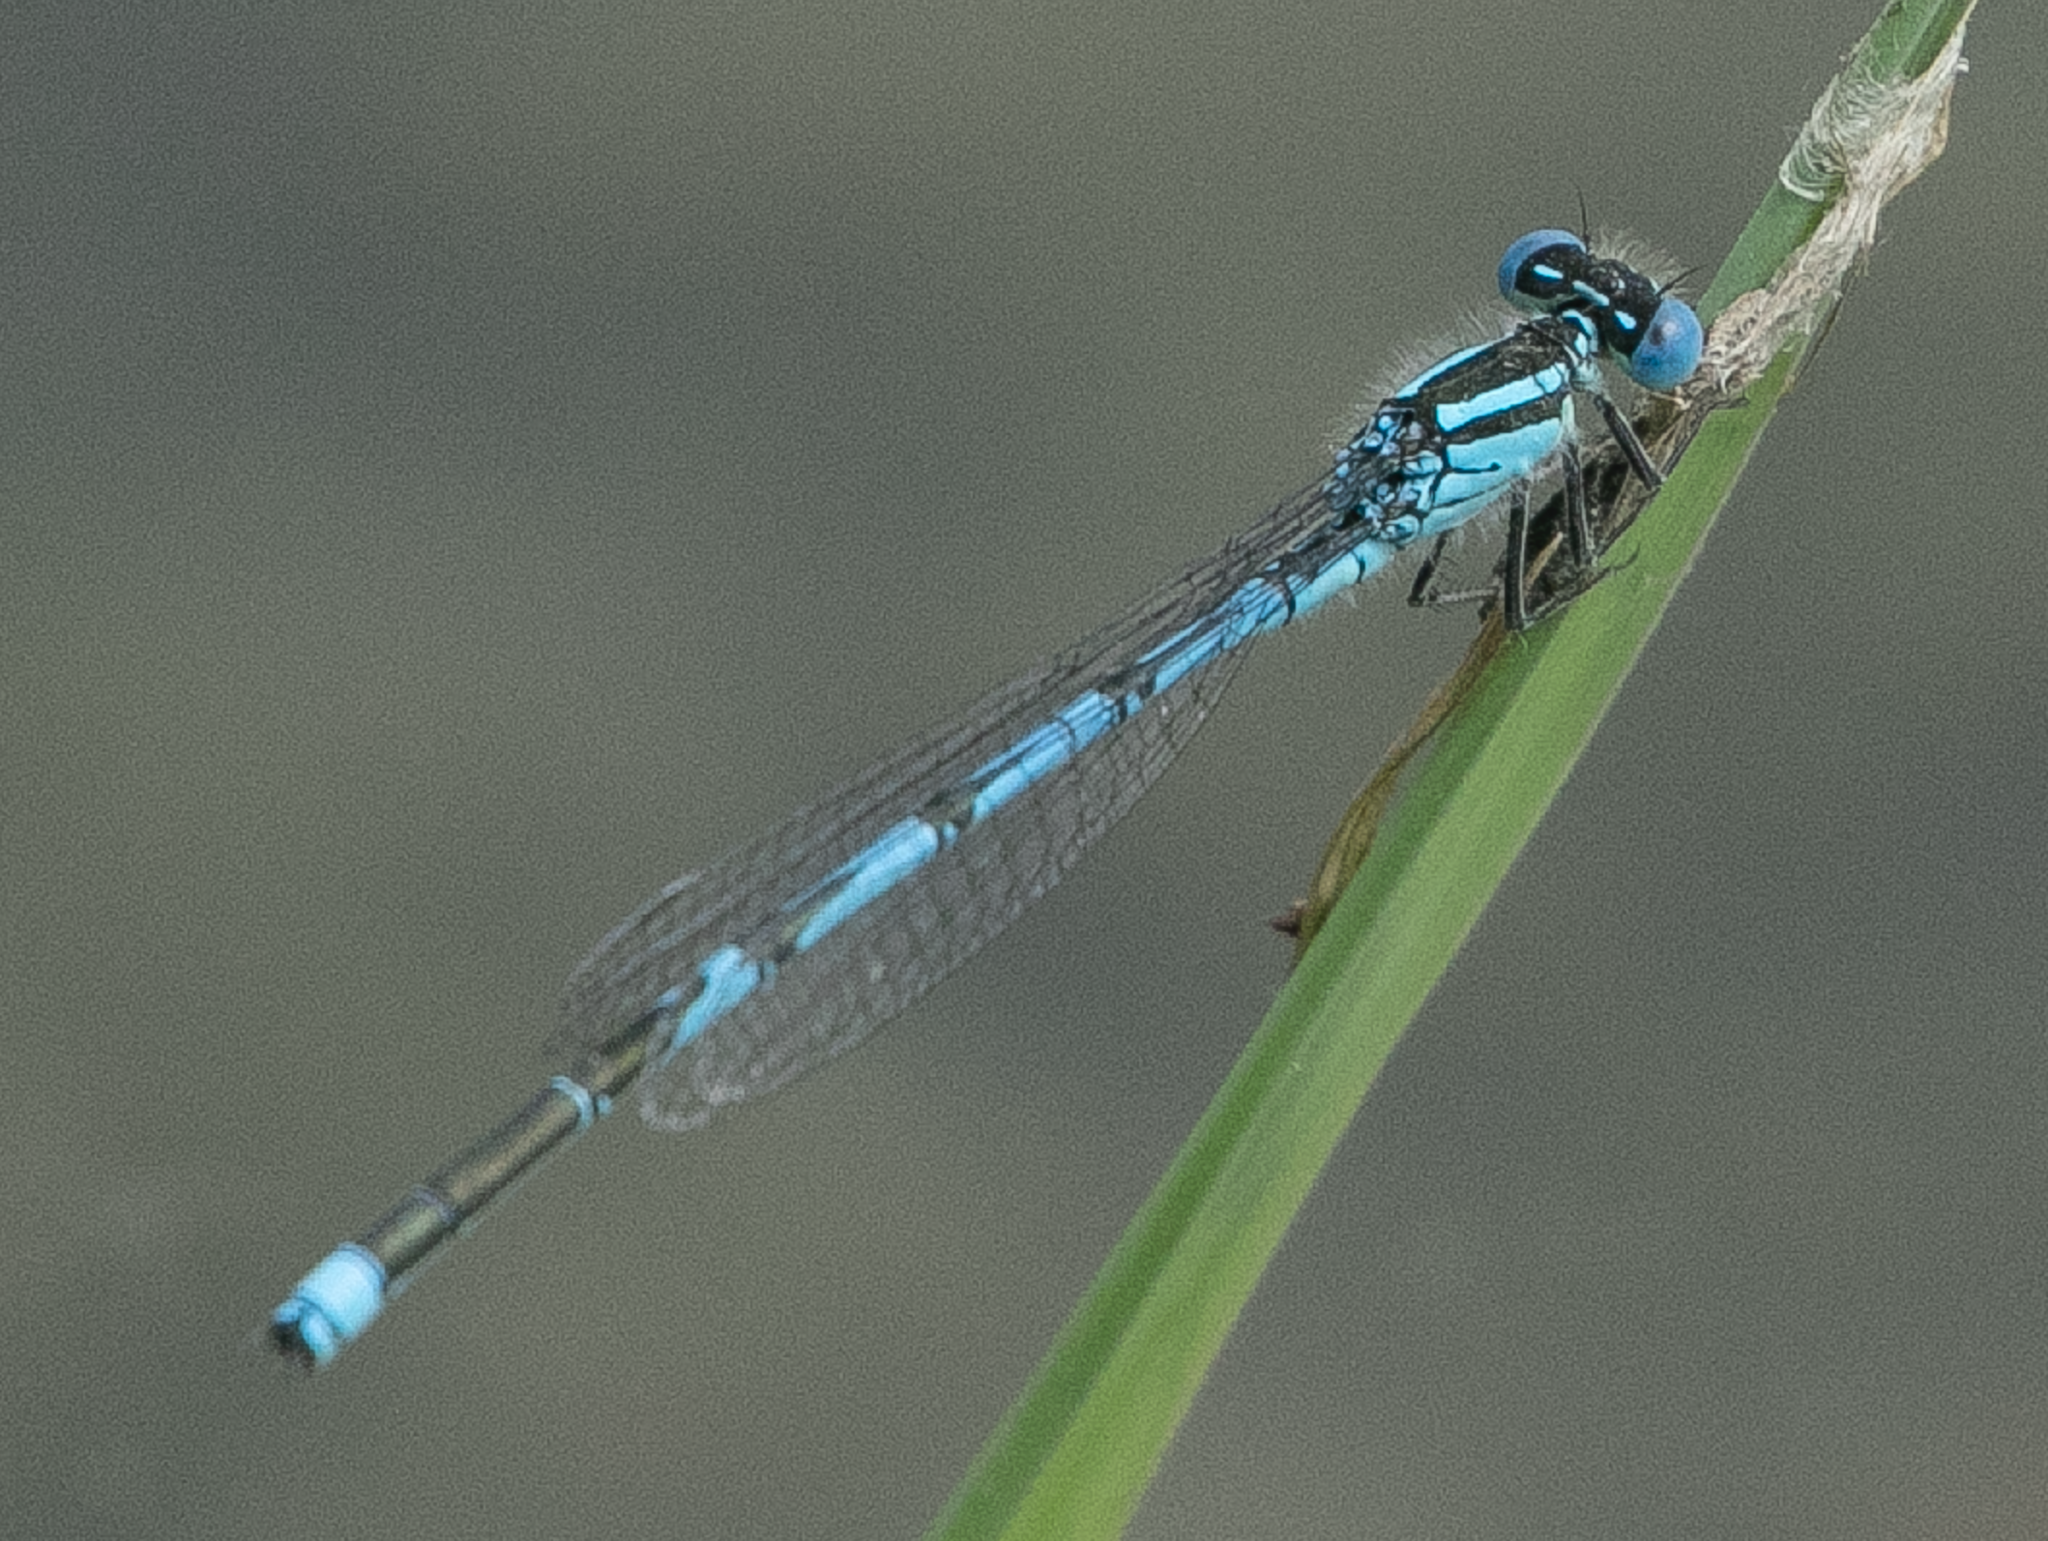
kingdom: Animalia
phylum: Arthropoda
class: Insecta
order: Odonata
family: Coenagrionidae
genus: Erythromma
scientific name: Erythromma lindenii
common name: Blue-eye
